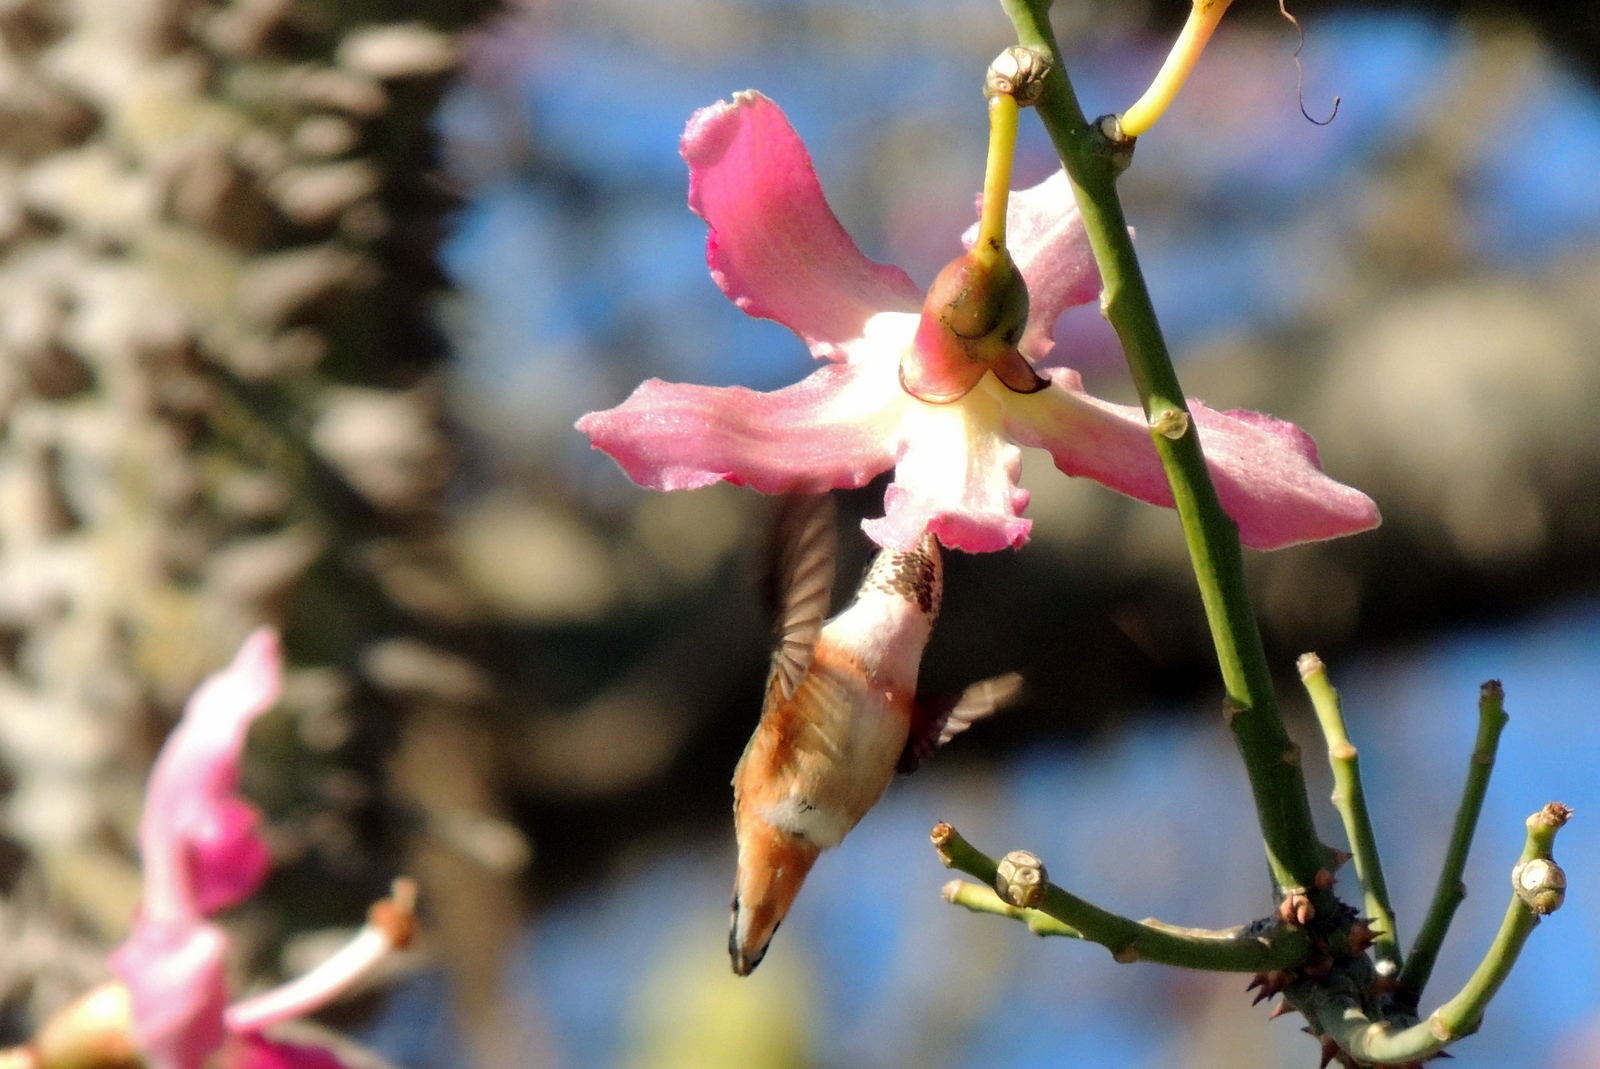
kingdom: Animalia
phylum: Chordata
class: Aves
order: Apodiformes
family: Trochilidae
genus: Selasphorus
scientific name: Selasphorus sasin
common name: Allen's hummingbird
